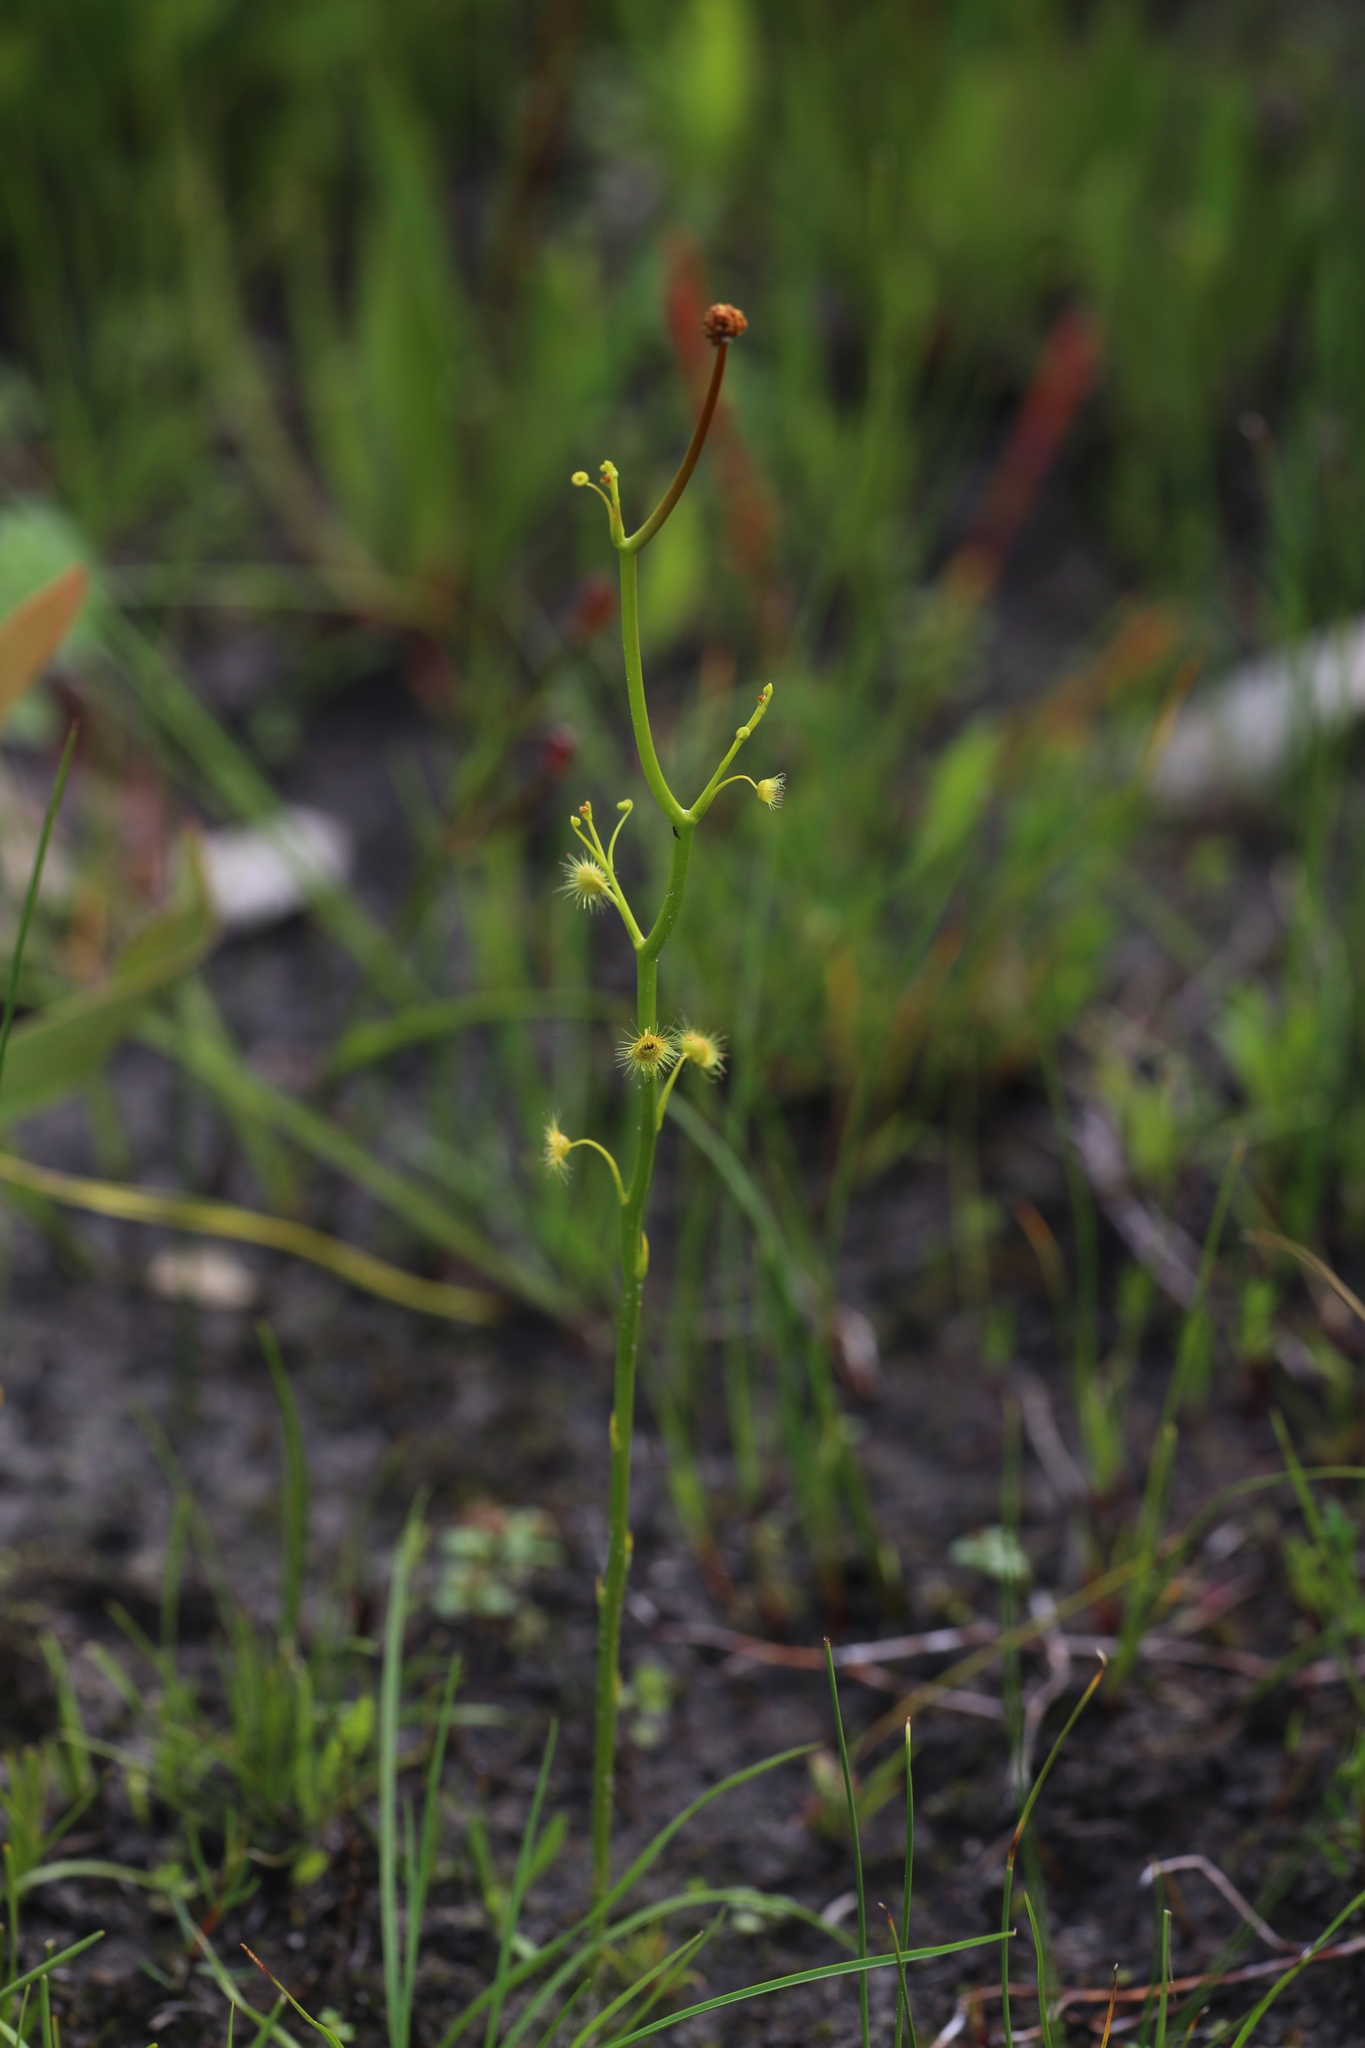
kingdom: Plantae
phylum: Tracheophyta
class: Magnoliopsida
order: Caryophyllales
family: Droseraceae
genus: Drosera
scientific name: Drosera myriantha
